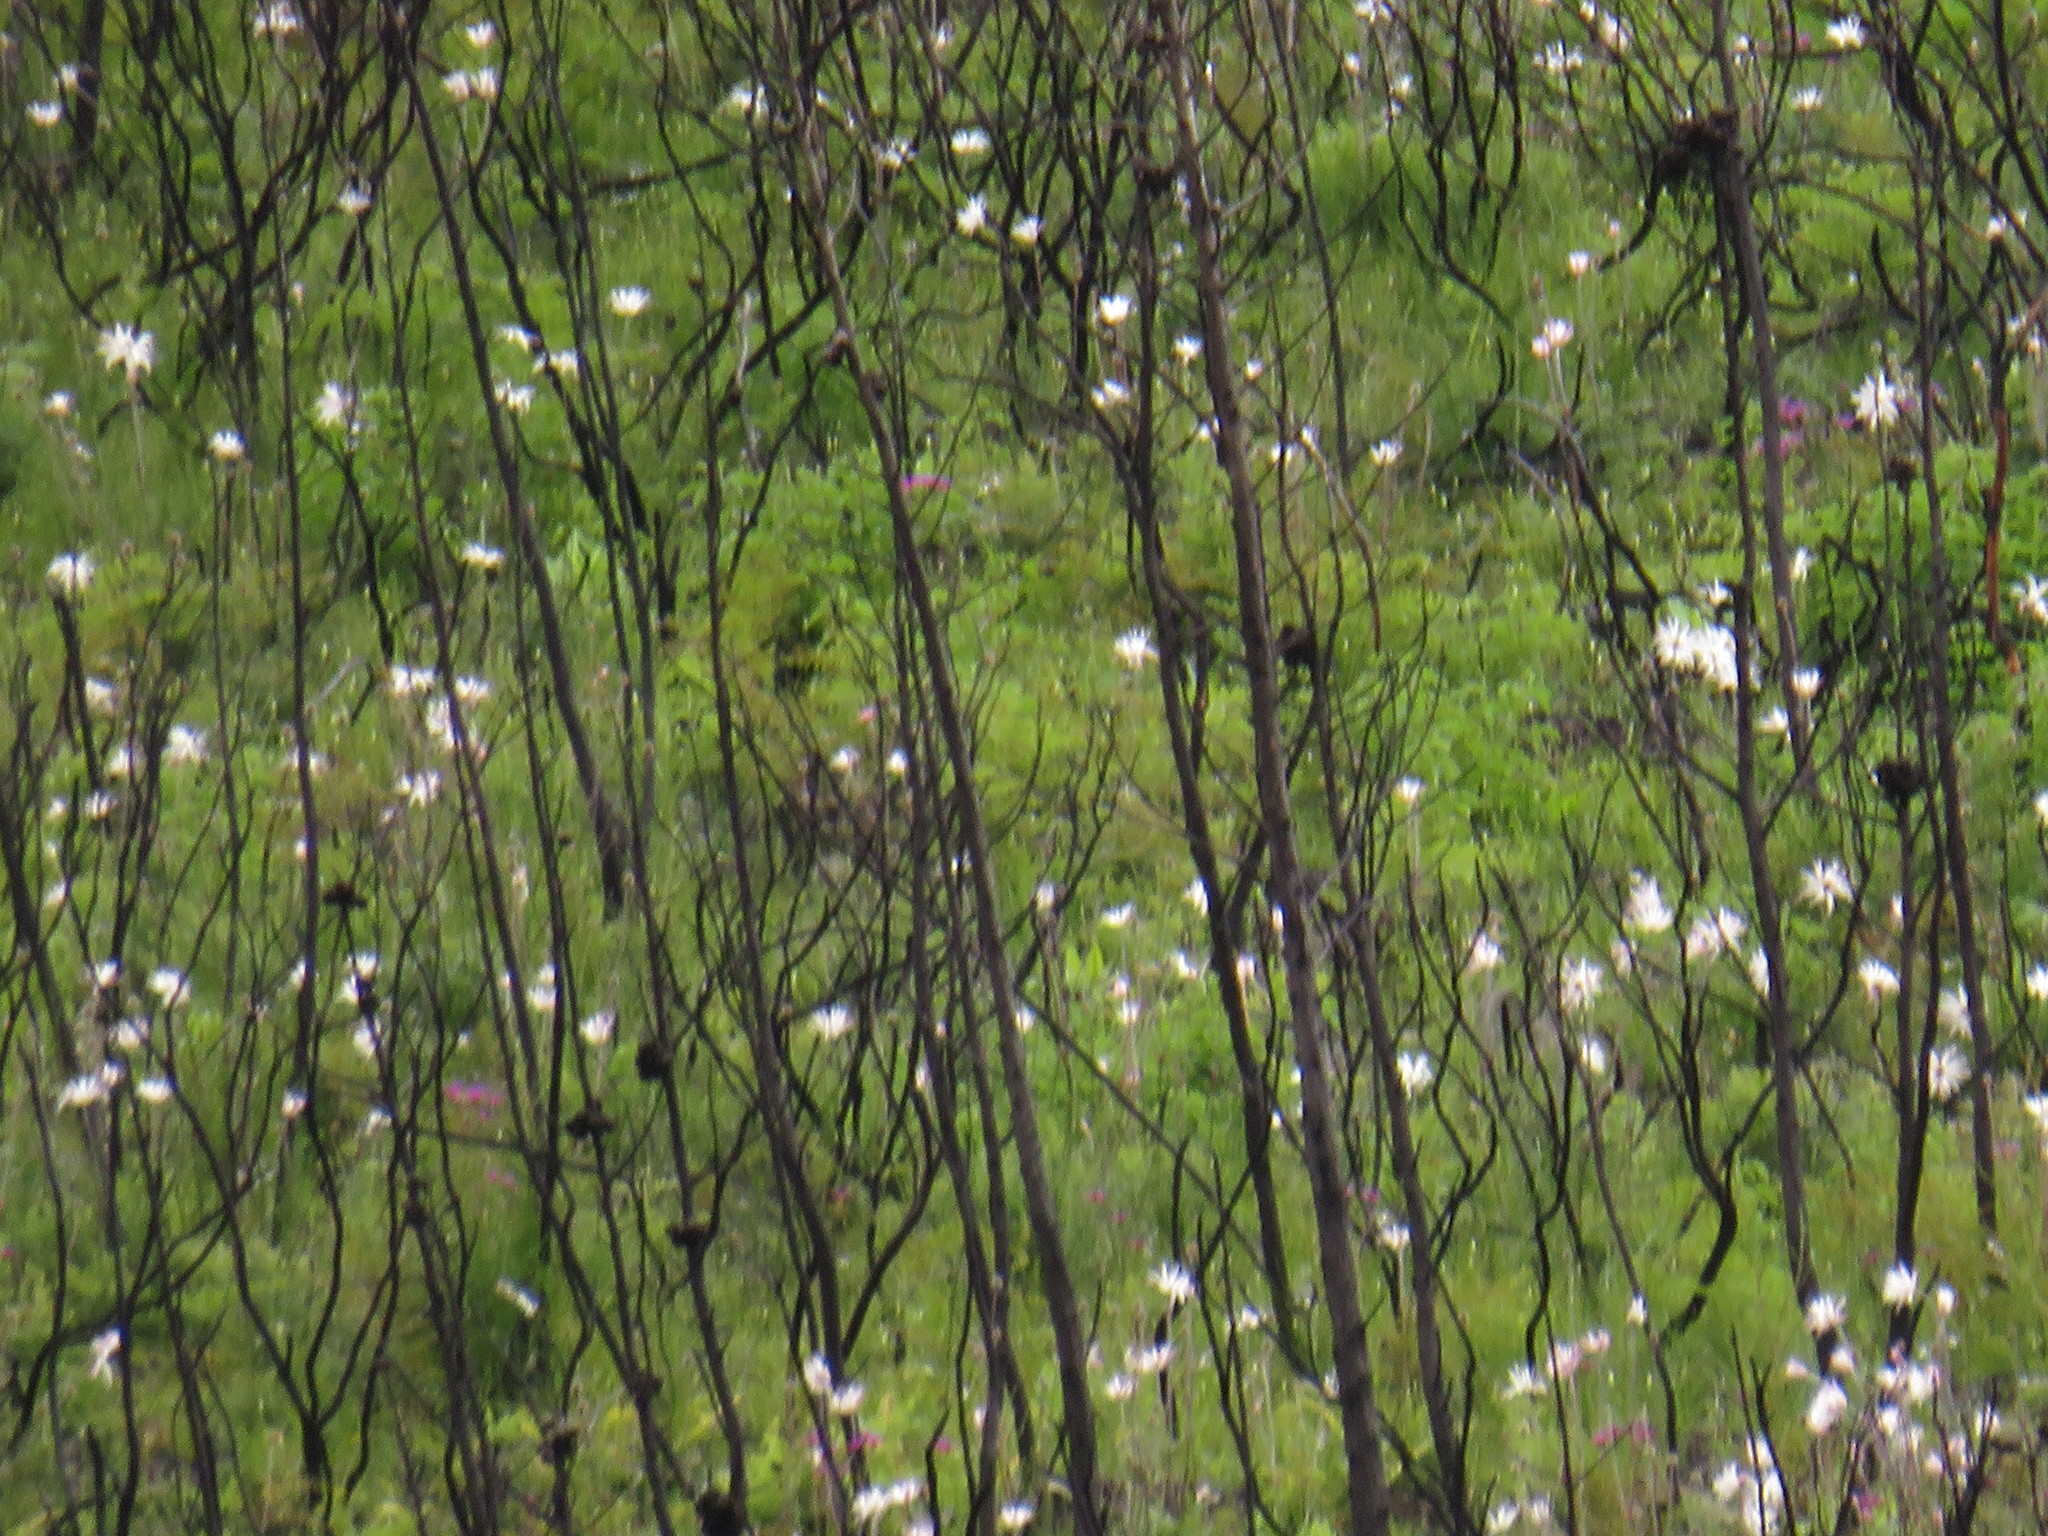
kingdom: Plantae
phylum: Tracheophyta
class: Magnoliopsida
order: Ranunculales
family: Ranunculaceae
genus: Knowltonia
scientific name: Knowltonia tenuifolia
